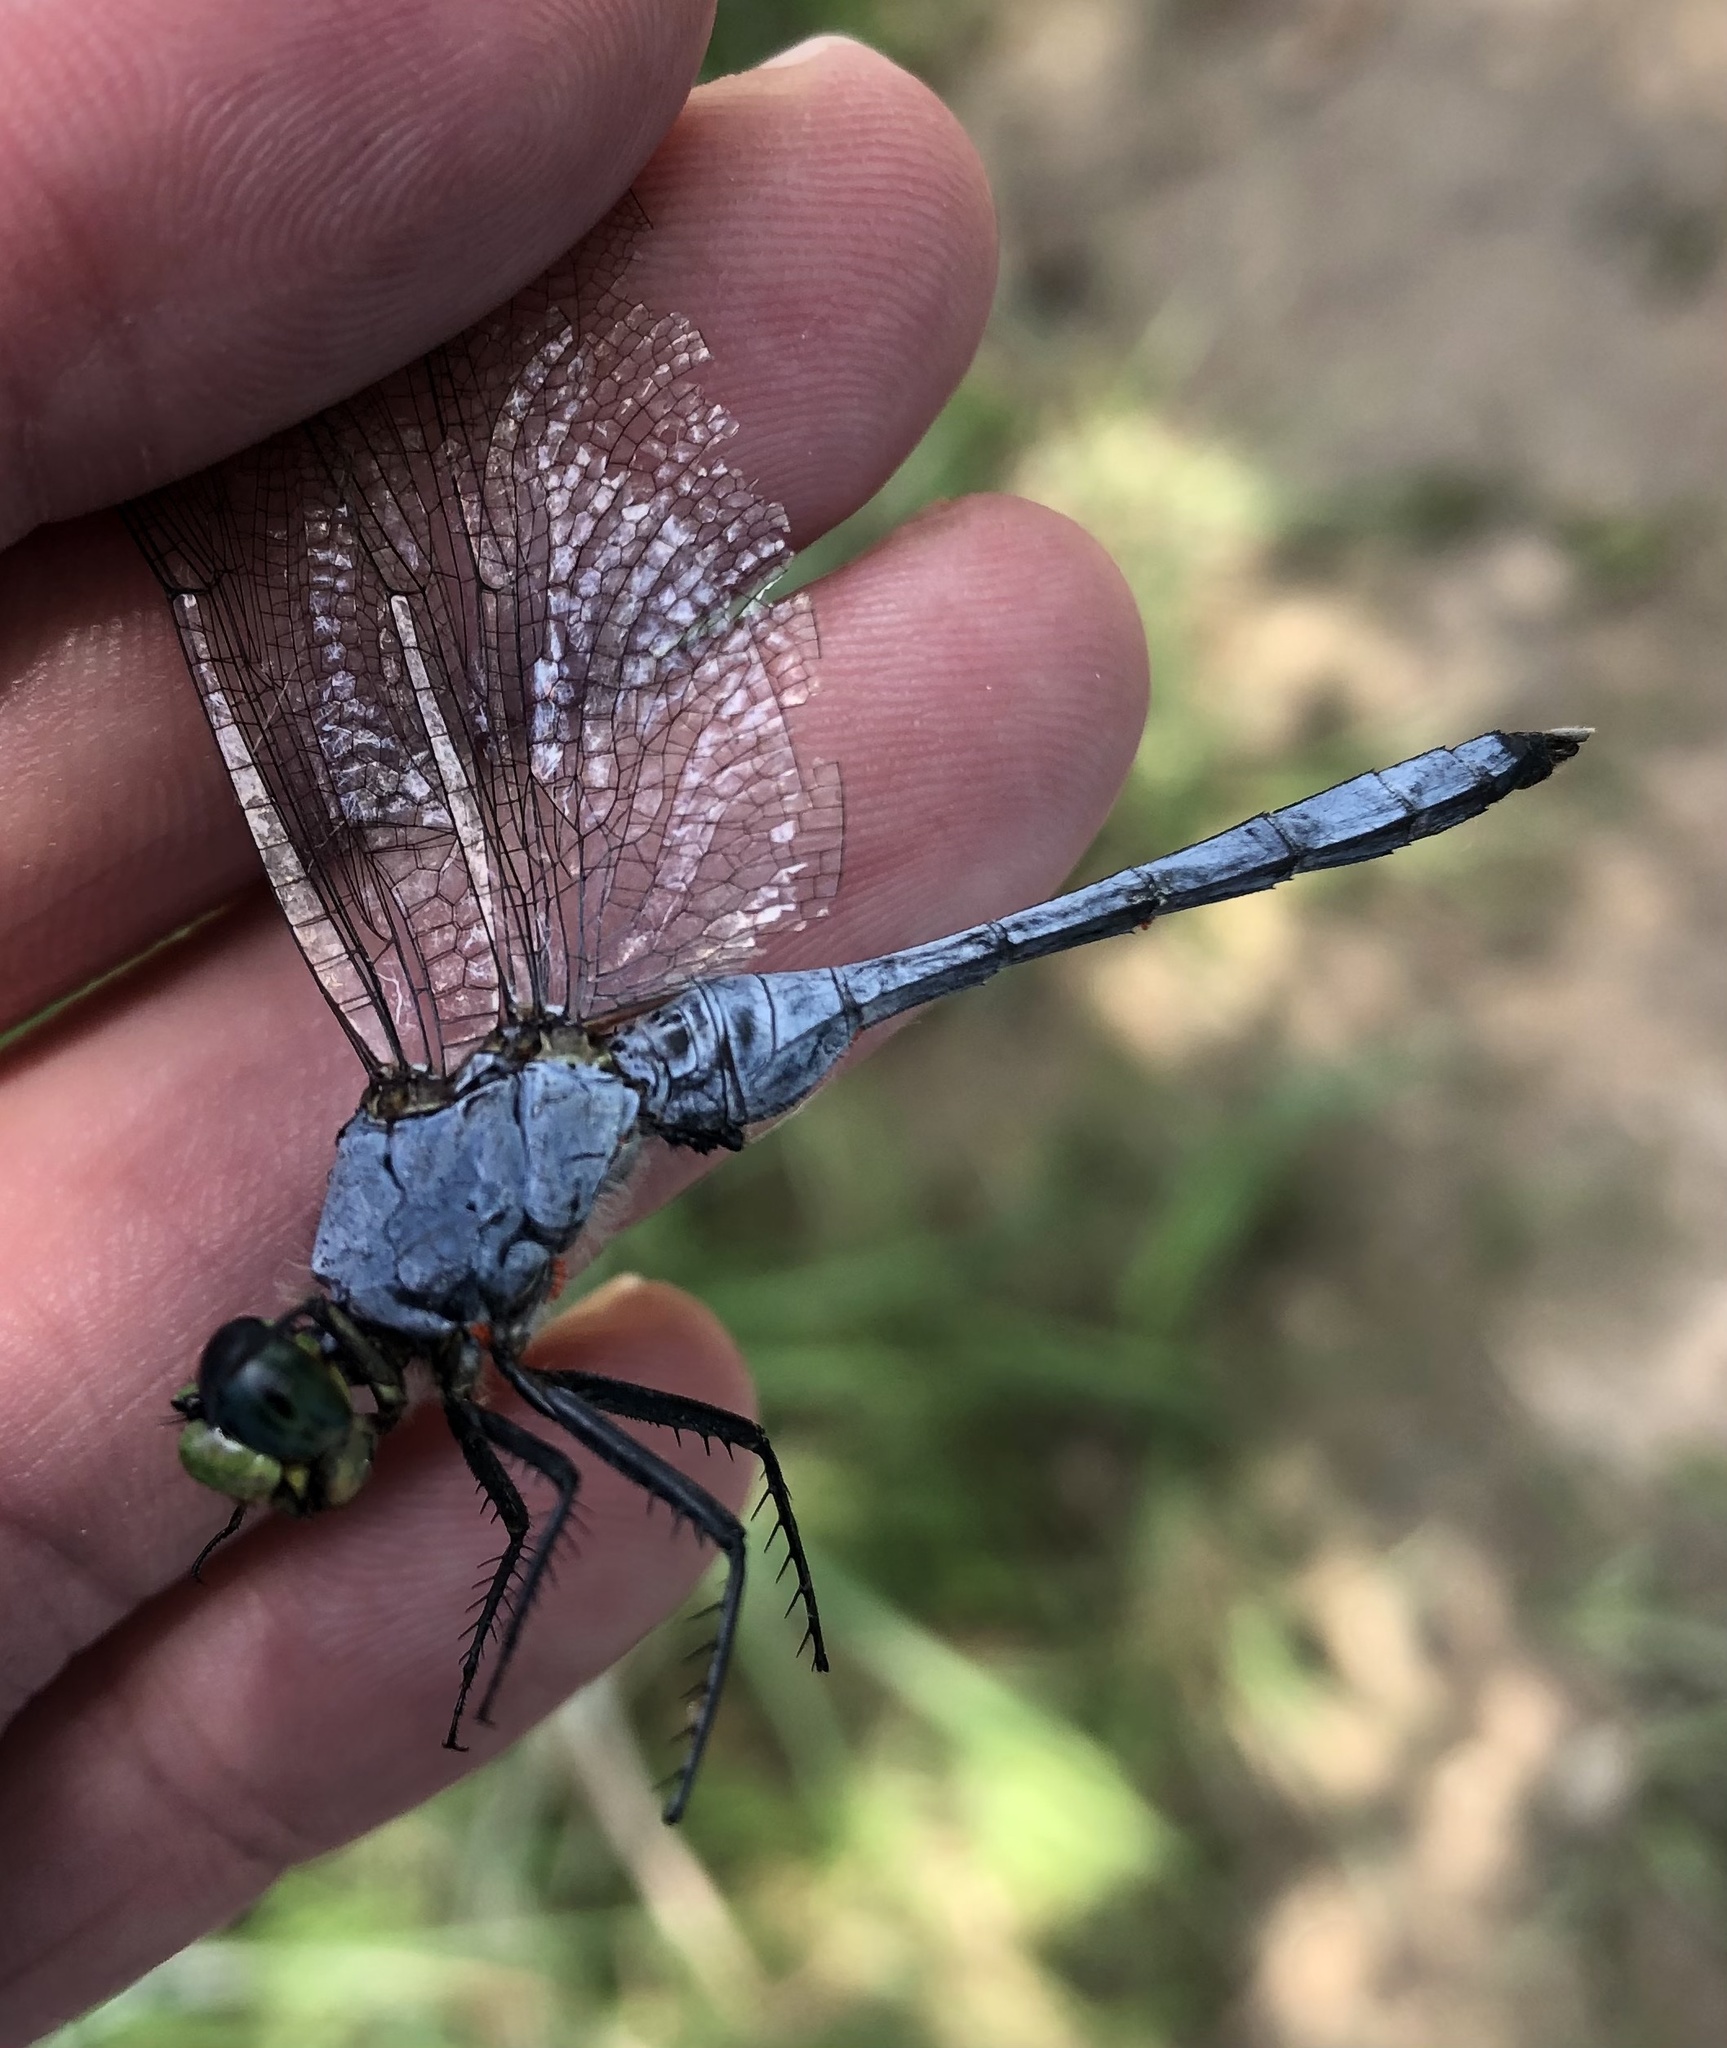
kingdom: Animalia
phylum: Arthropoda
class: Insecta
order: Odonata
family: Libellulidae
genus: Erythemis
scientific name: Erythemis simplicicollis
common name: Eastern pondhawk
